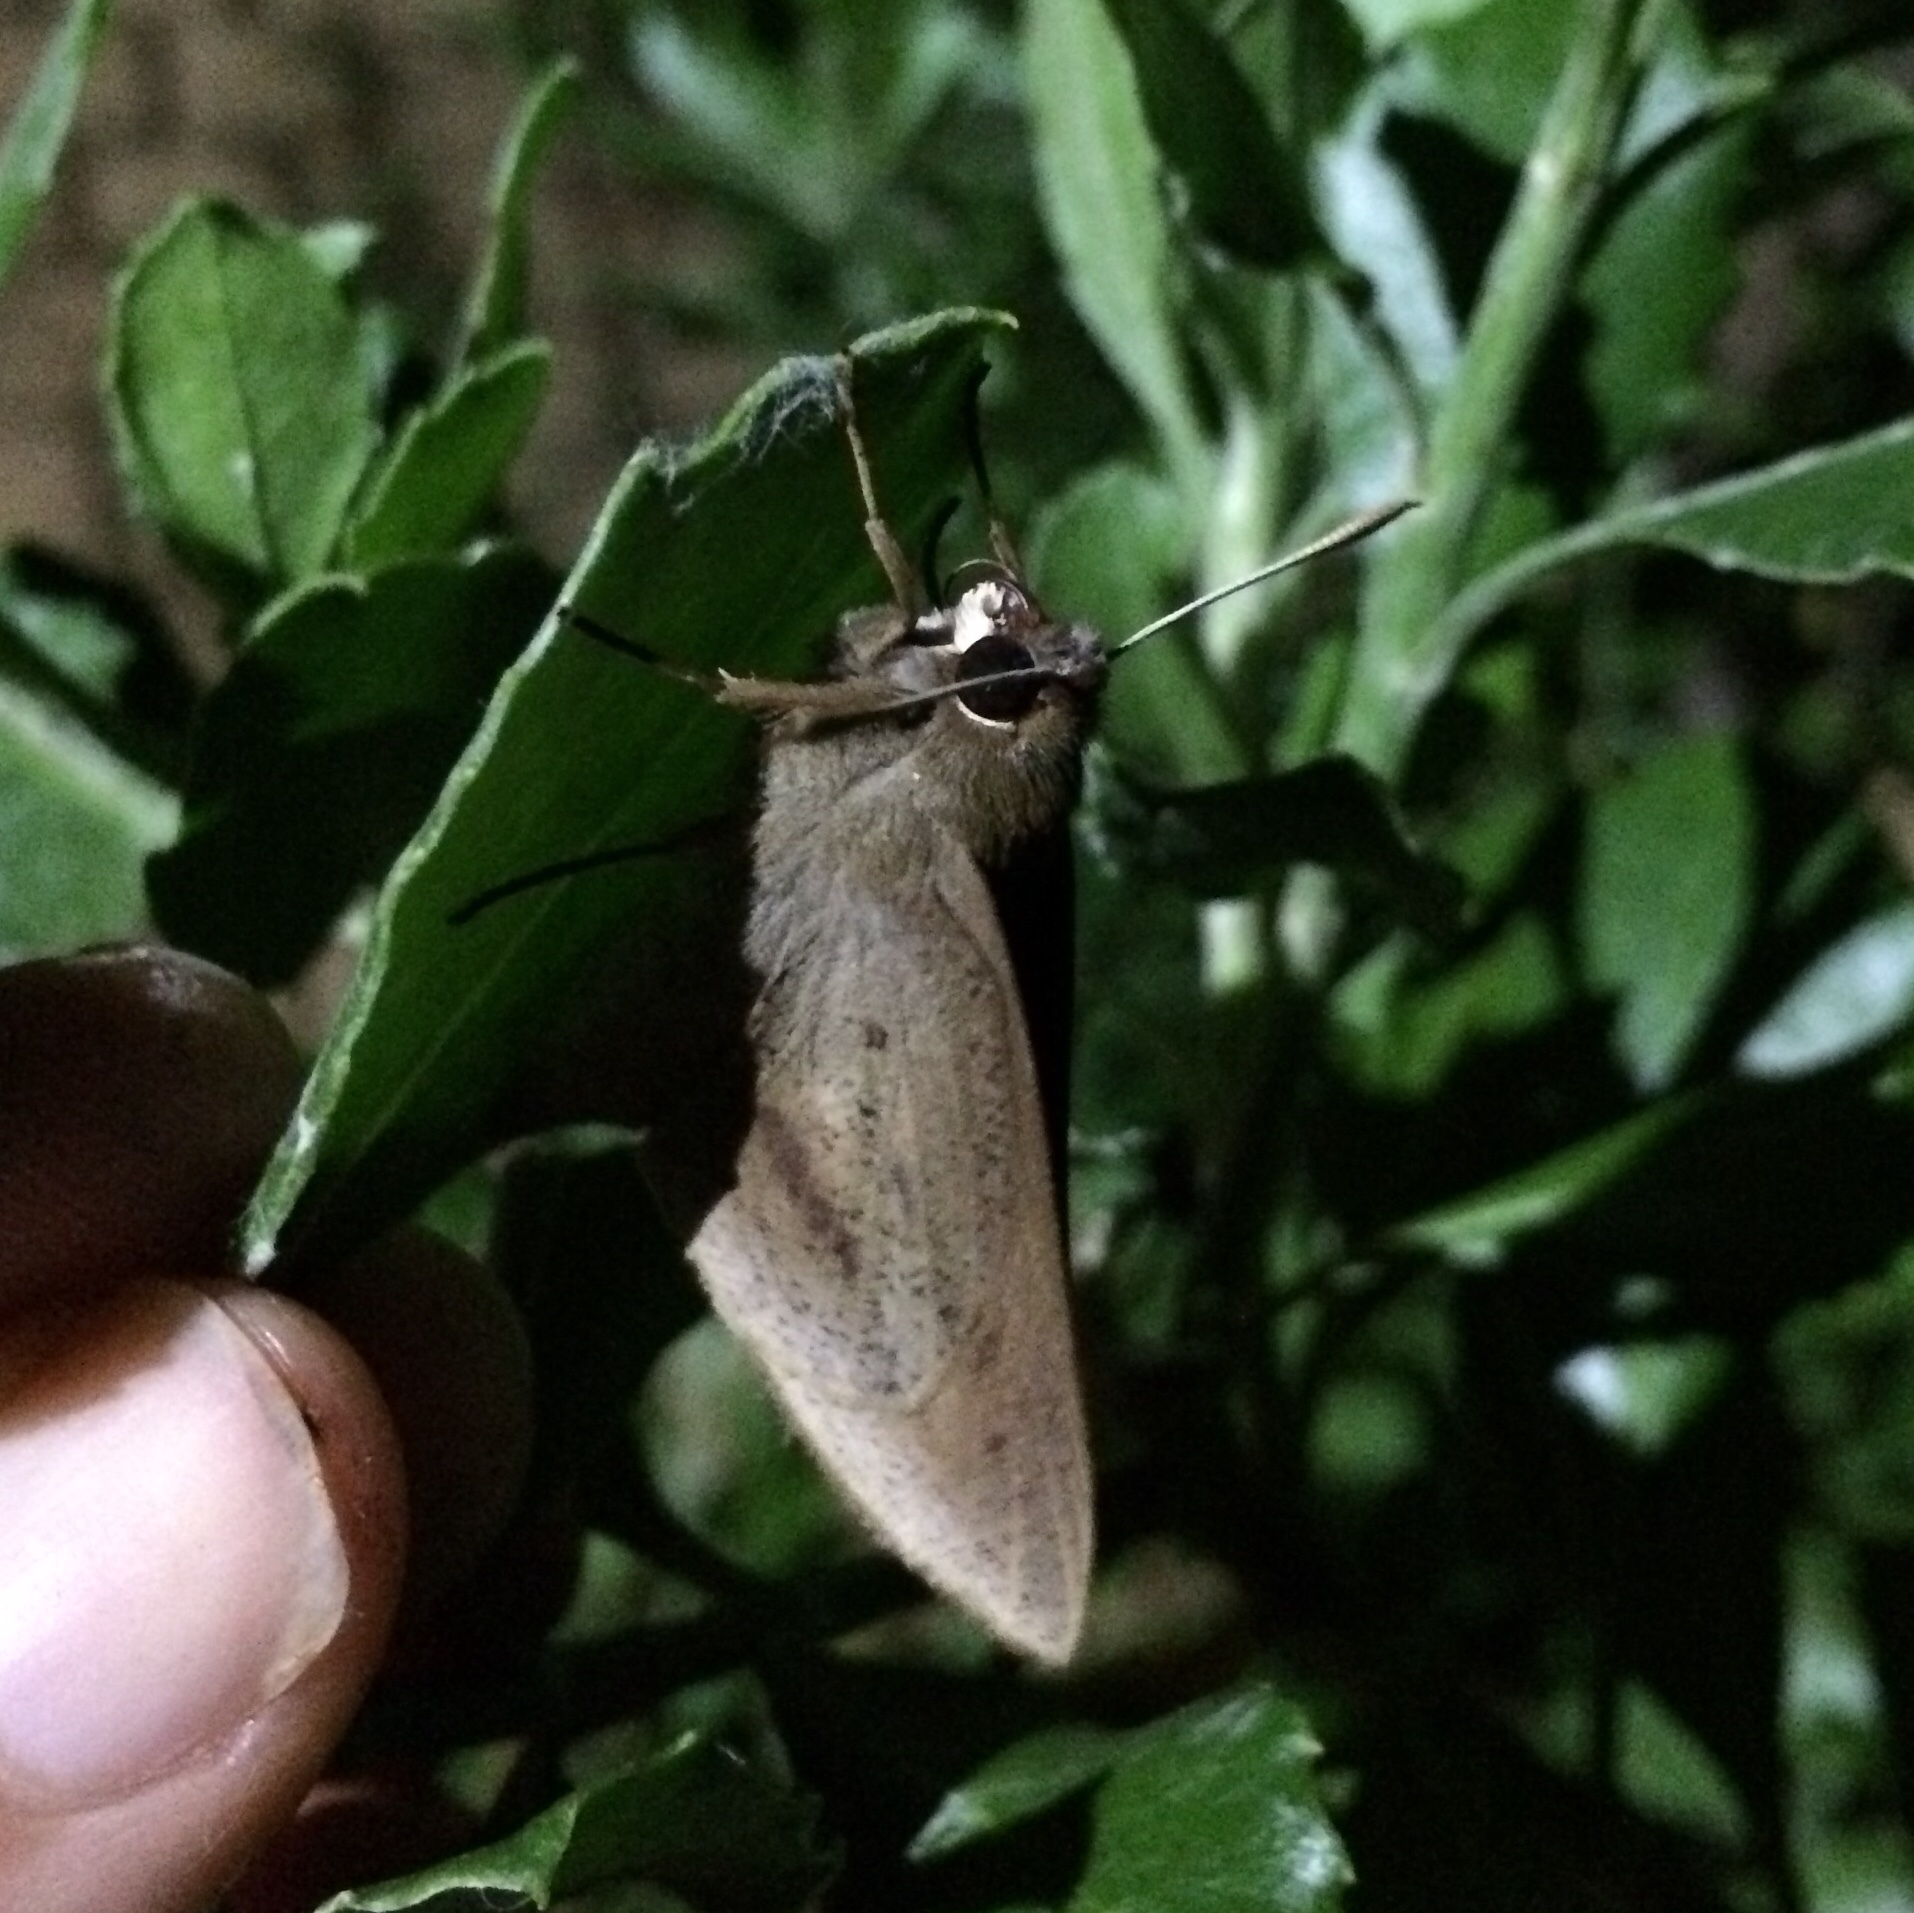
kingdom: Animalia
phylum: Arthropoda
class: Insecta
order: Lepidoptera
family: Hesperiidae
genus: Moltena
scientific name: Moltena fiara
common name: Banana-tree night-fighter
